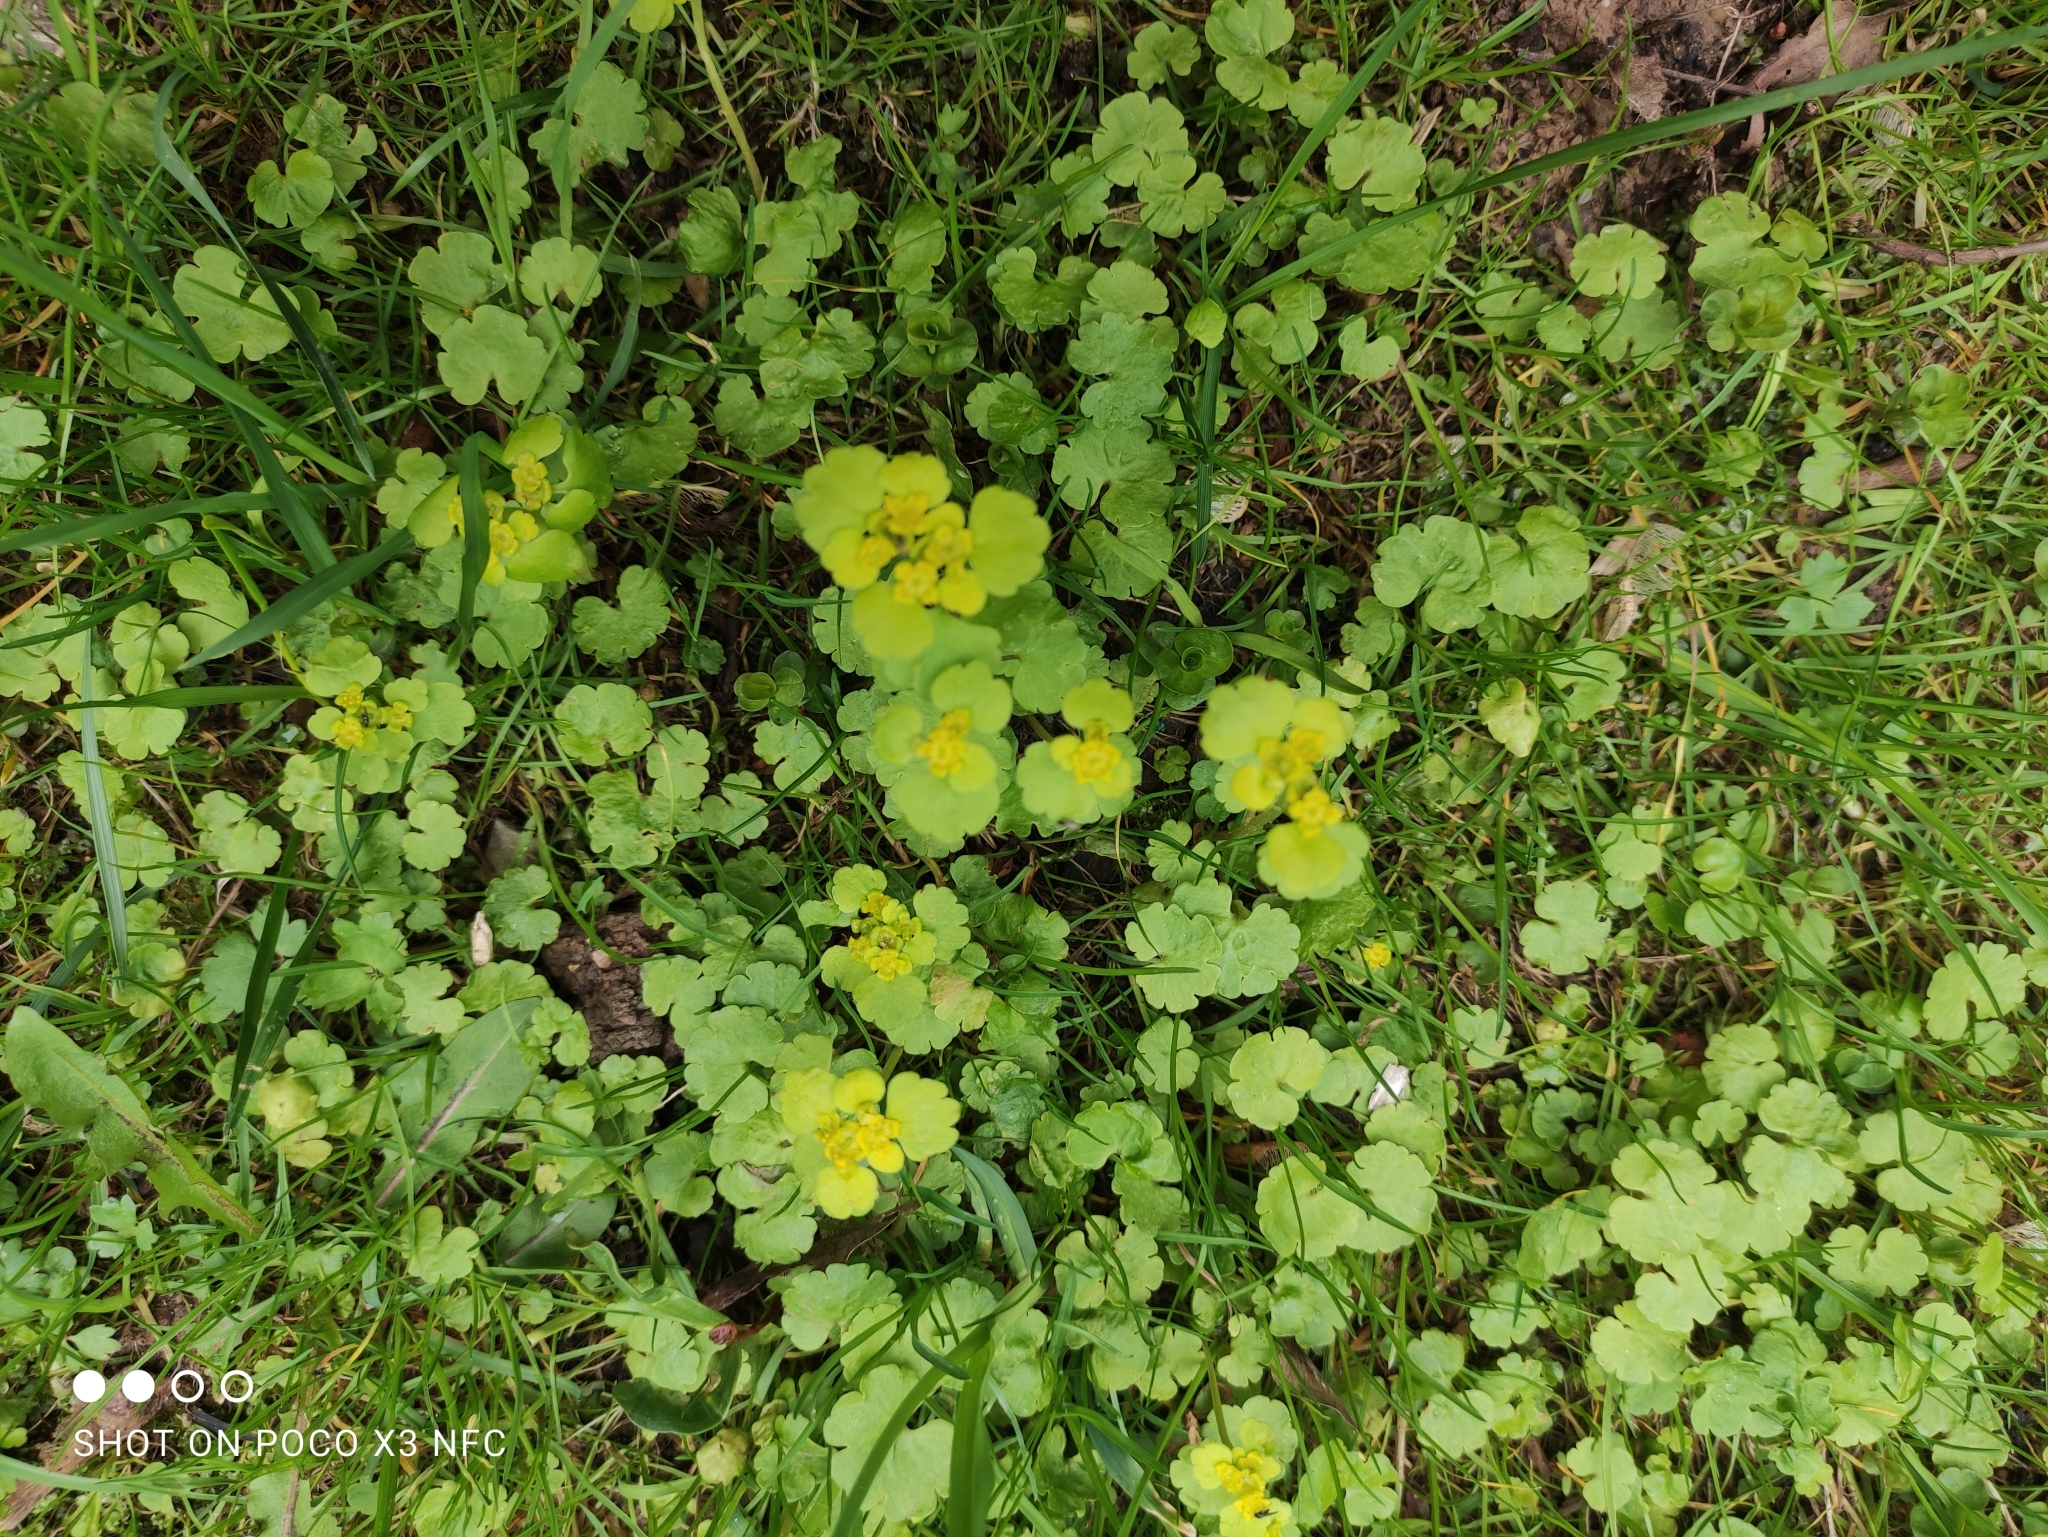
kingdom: Plantae
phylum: Tracheophyta
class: Magnoliopsida
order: Saxifragales
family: Saxifragaceae
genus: Chrysosplenium
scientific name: Chrysosplenium alternifolium
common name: Alternate-leaved golden-saxifrage
